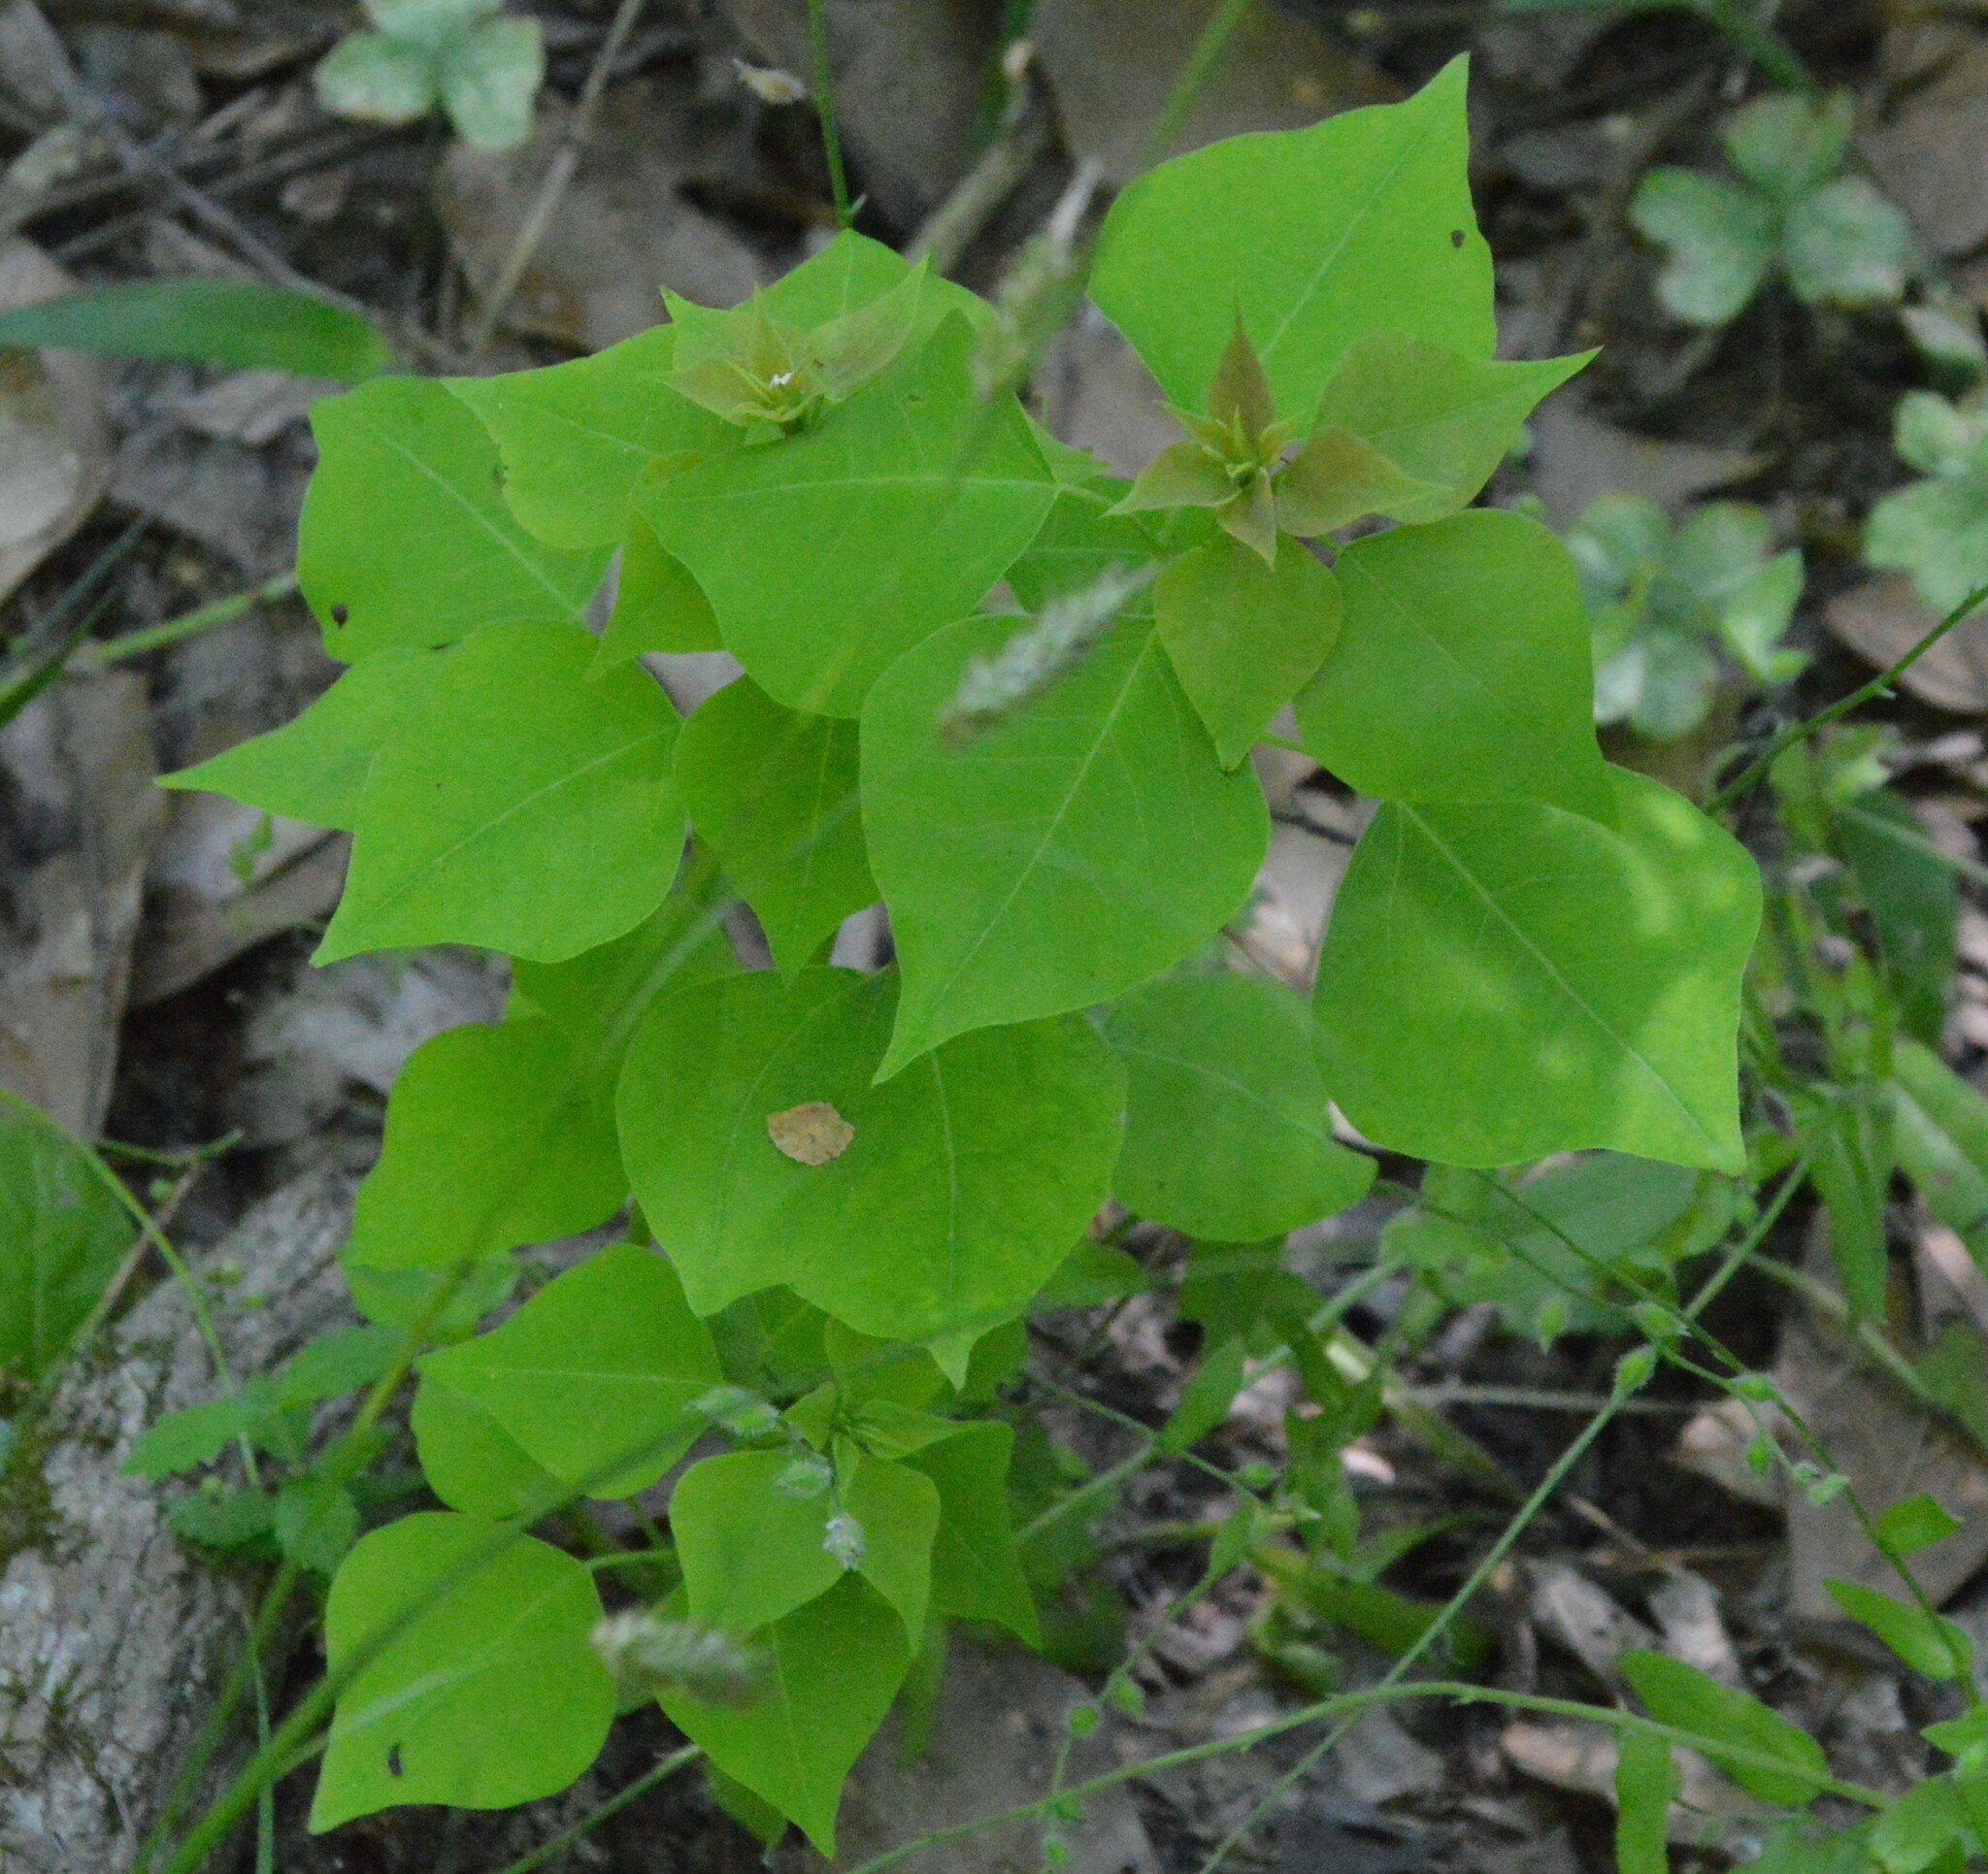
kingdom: Plantae
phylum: Tracheophyta
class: Magnoliopsida
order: Malpighiales
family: Euphorbiaceae
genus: Triadica
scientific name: Triadica sebifera
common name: Chinese tallow
